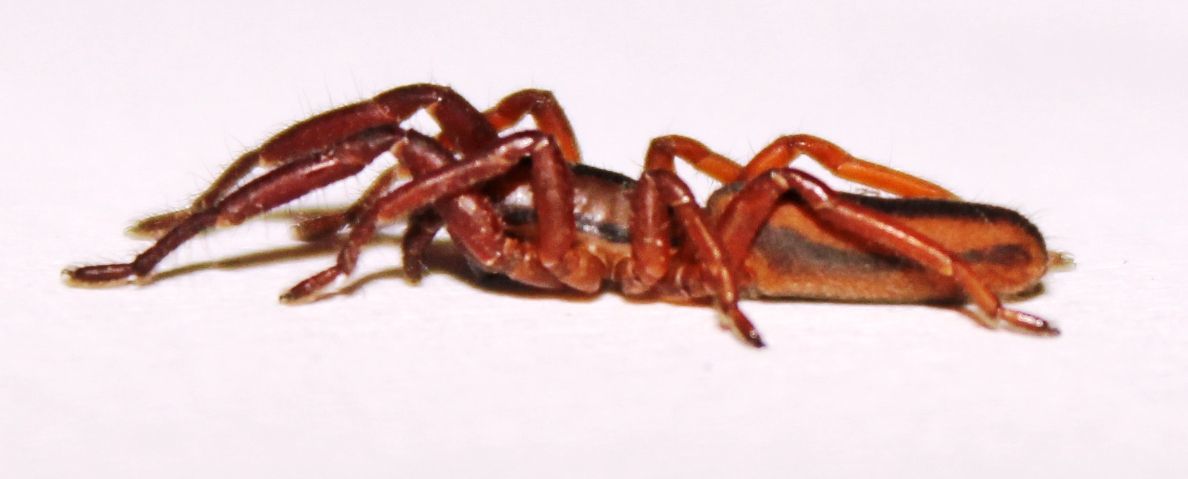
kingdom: Animalia
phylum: Arthropoda
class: Arachnida
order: Araneae
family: Zodariidae
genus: Chariobas
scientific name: Chariobas lineatus
